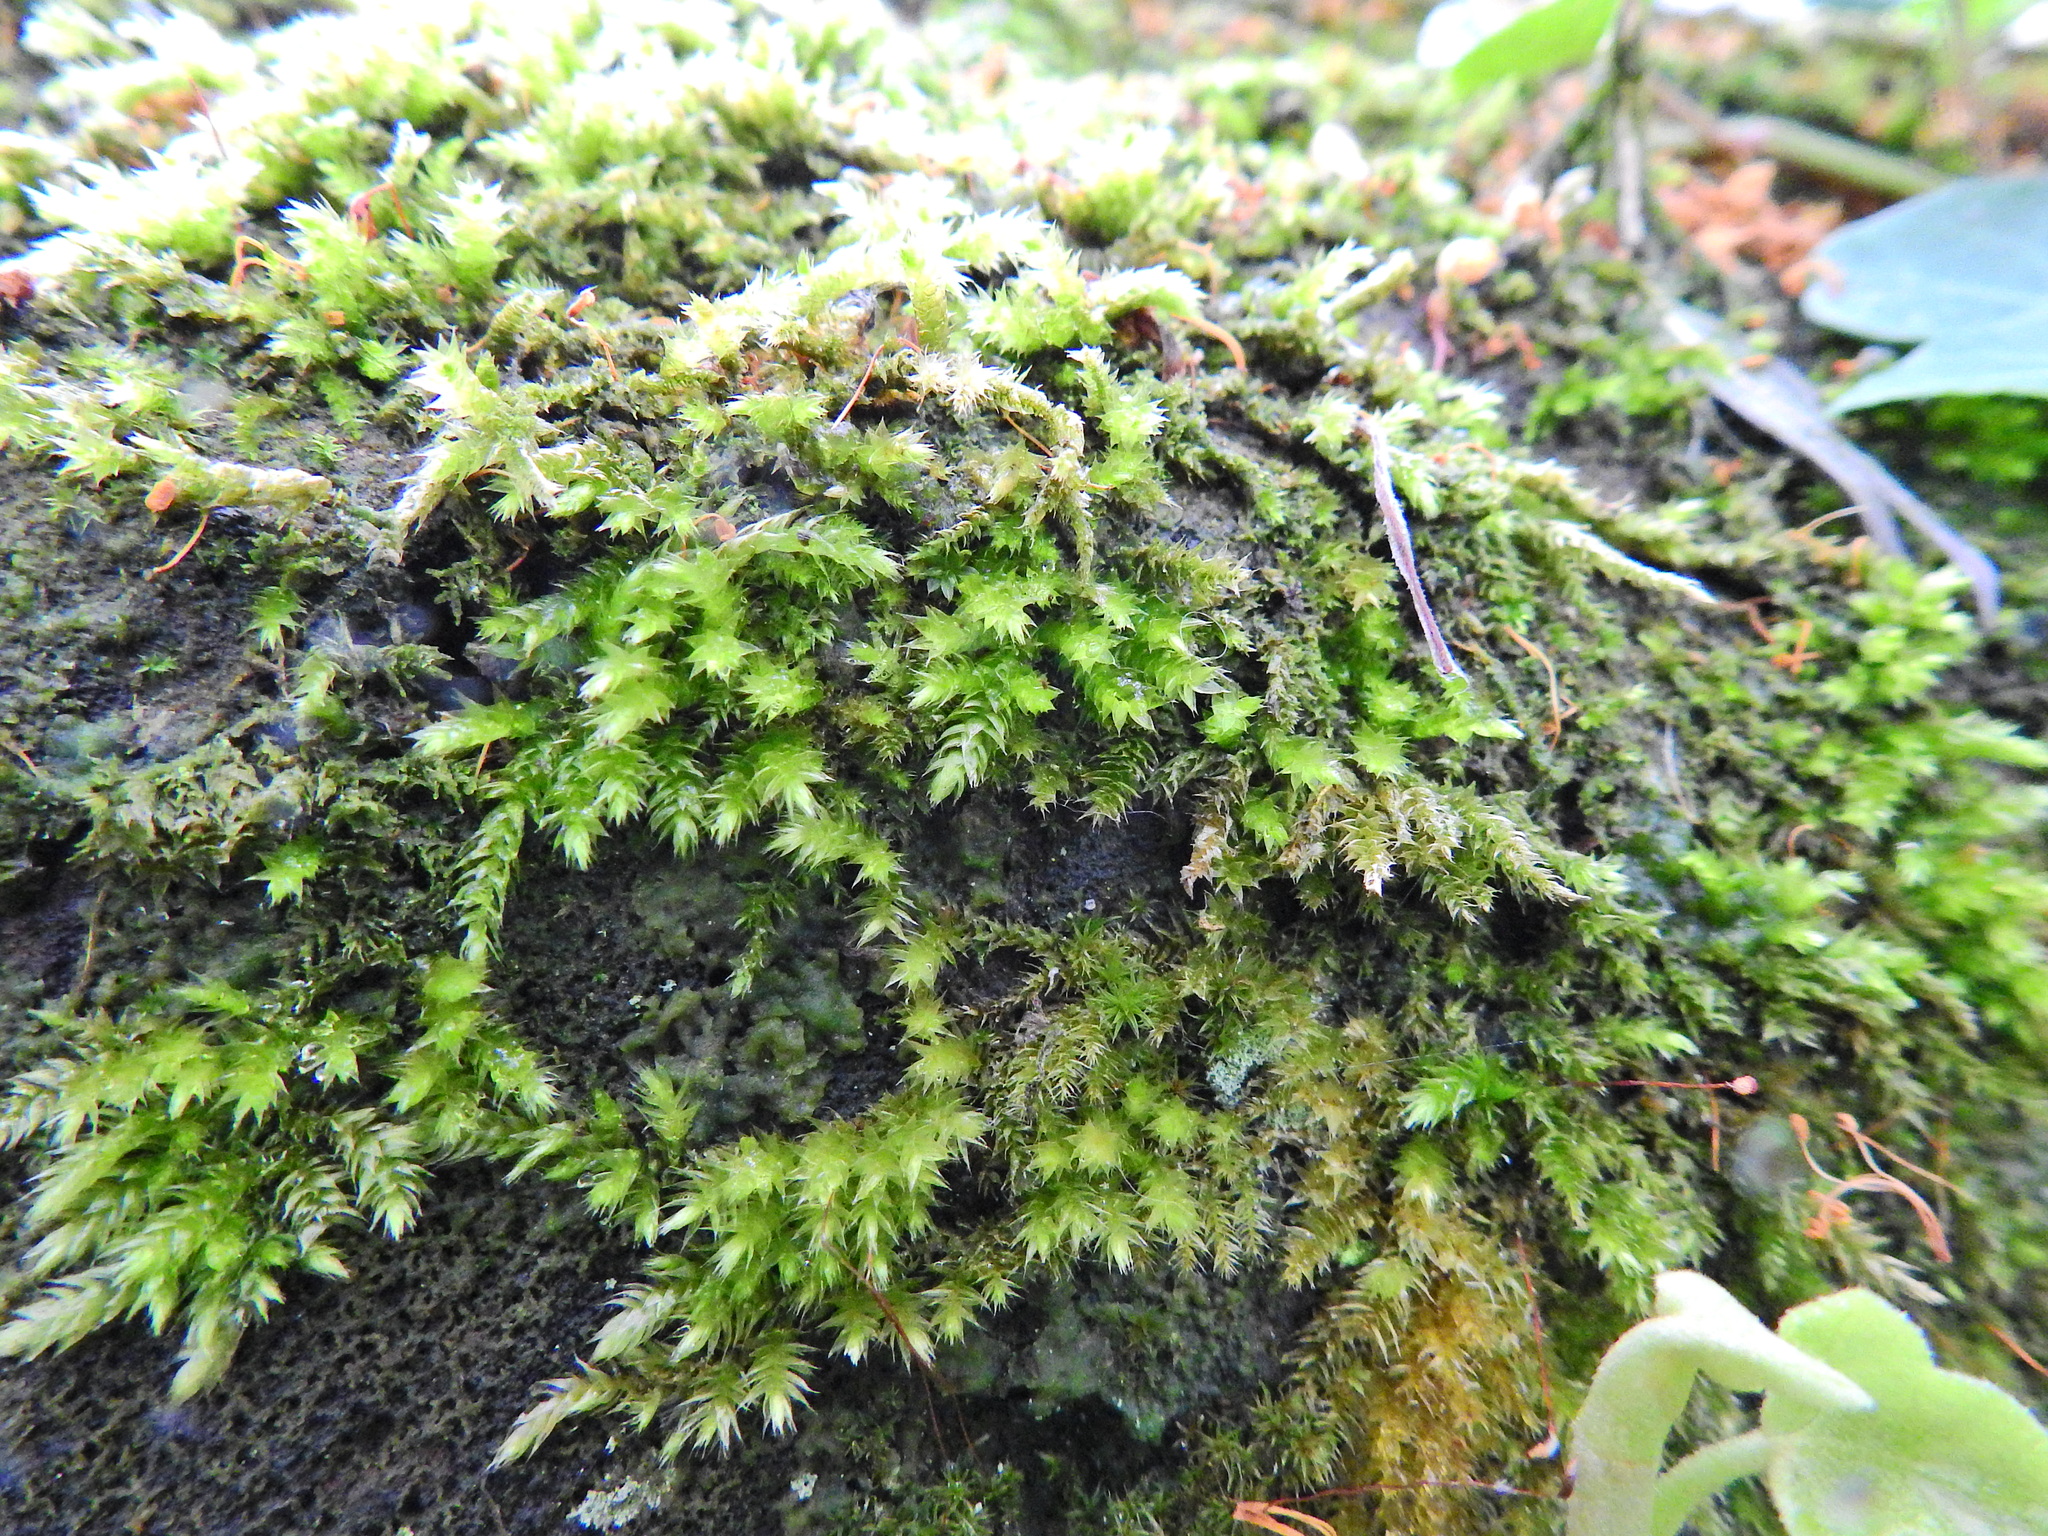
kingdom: Plantae
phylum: Bryophyta
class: Bryopsida
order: Hypnales
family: Brachytheciaceae
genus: Homalothecium
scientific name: Homalothecium sericeum
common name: Silky wall feather-moss
